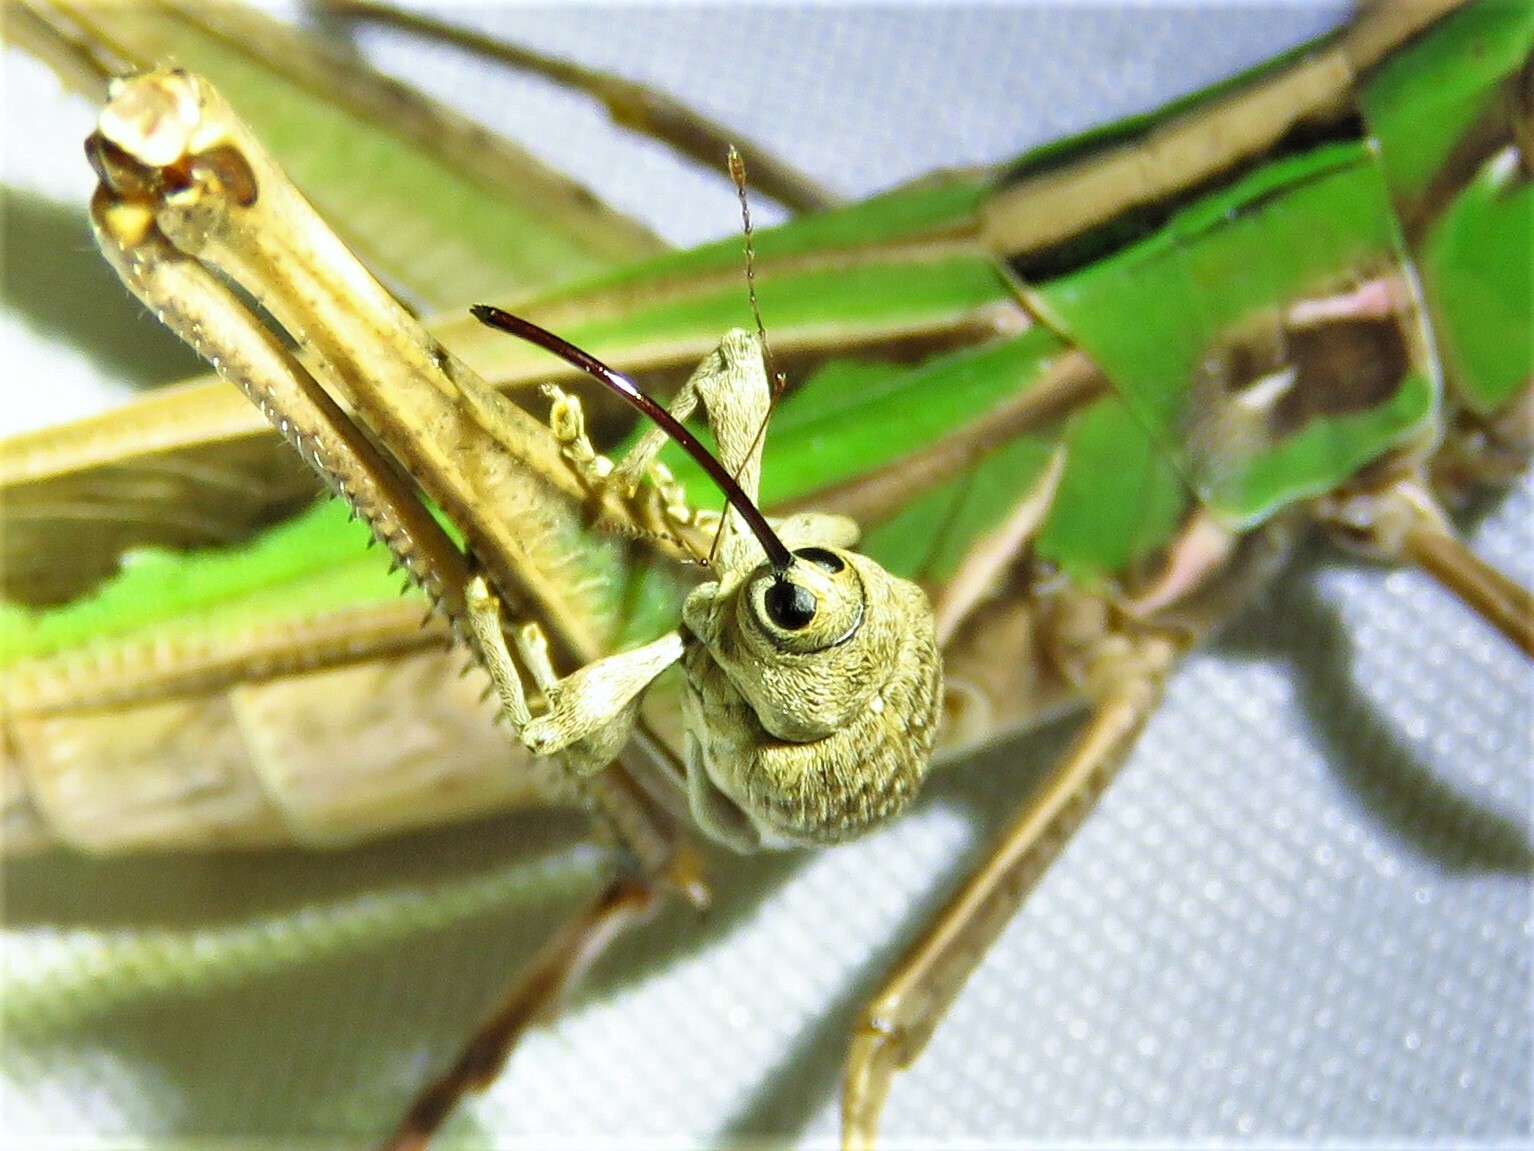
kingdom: Animalia
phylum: Arthropoda
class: Insecta
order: Coleoptera
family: Curculionidae
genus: Curculio
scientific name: Curculio
